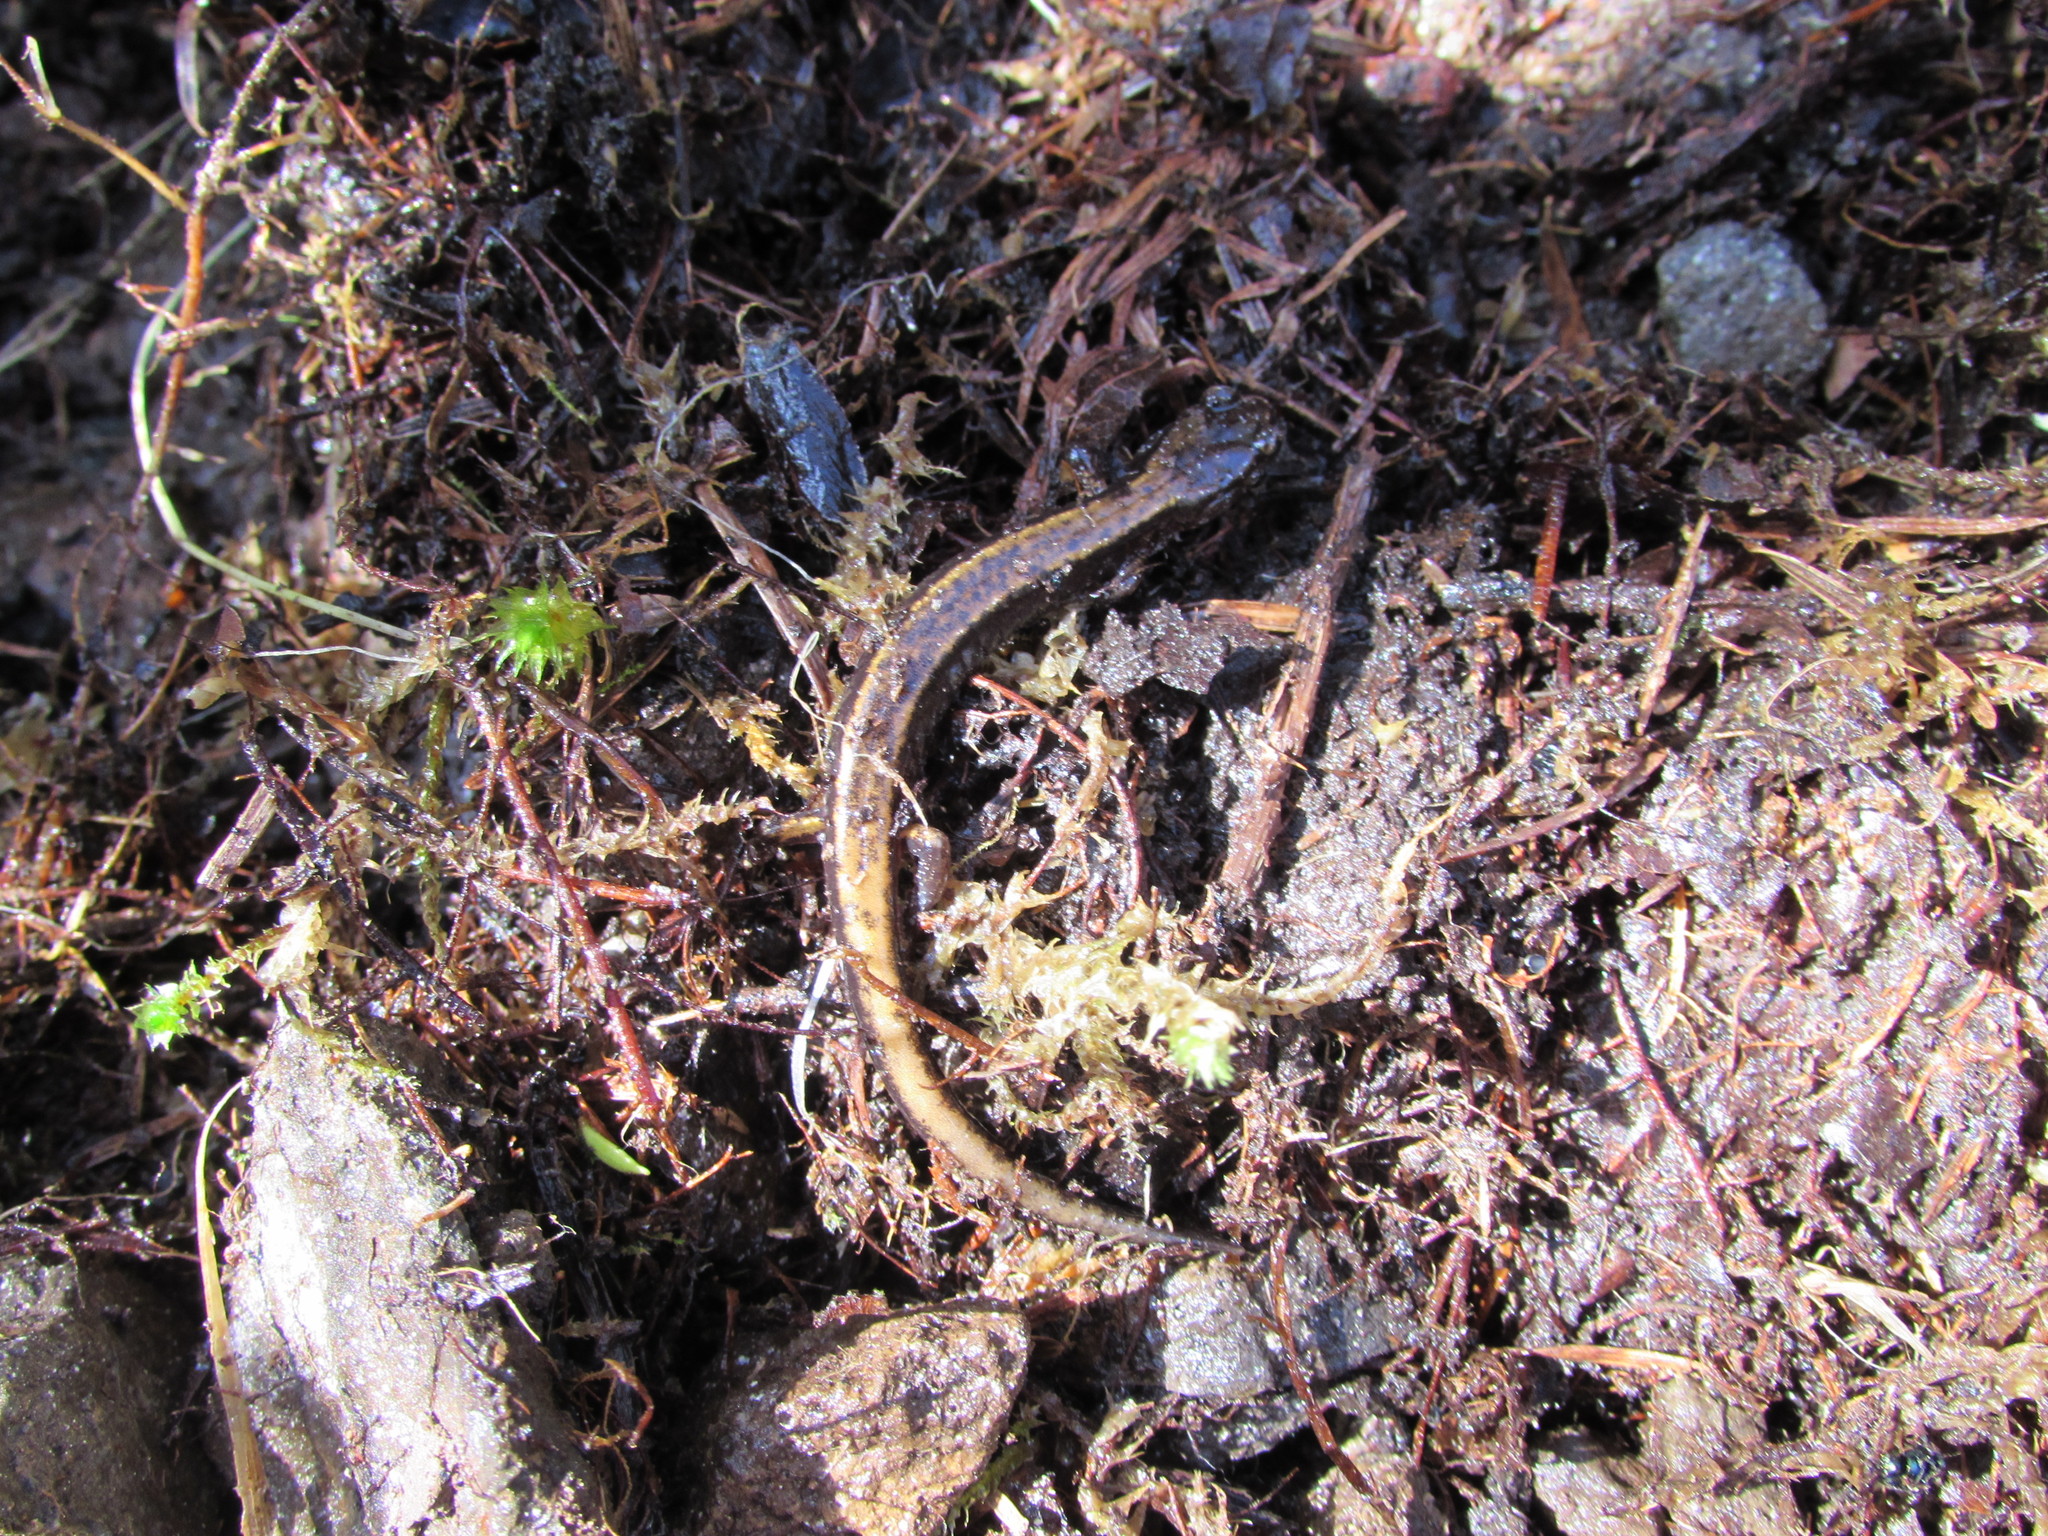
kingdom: Animalia
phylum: Chordata
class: Amphibia
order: Caudata
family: Plethodontidae
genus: Plethodon
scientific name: Plethodon dunni
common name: Dunn's salamander
